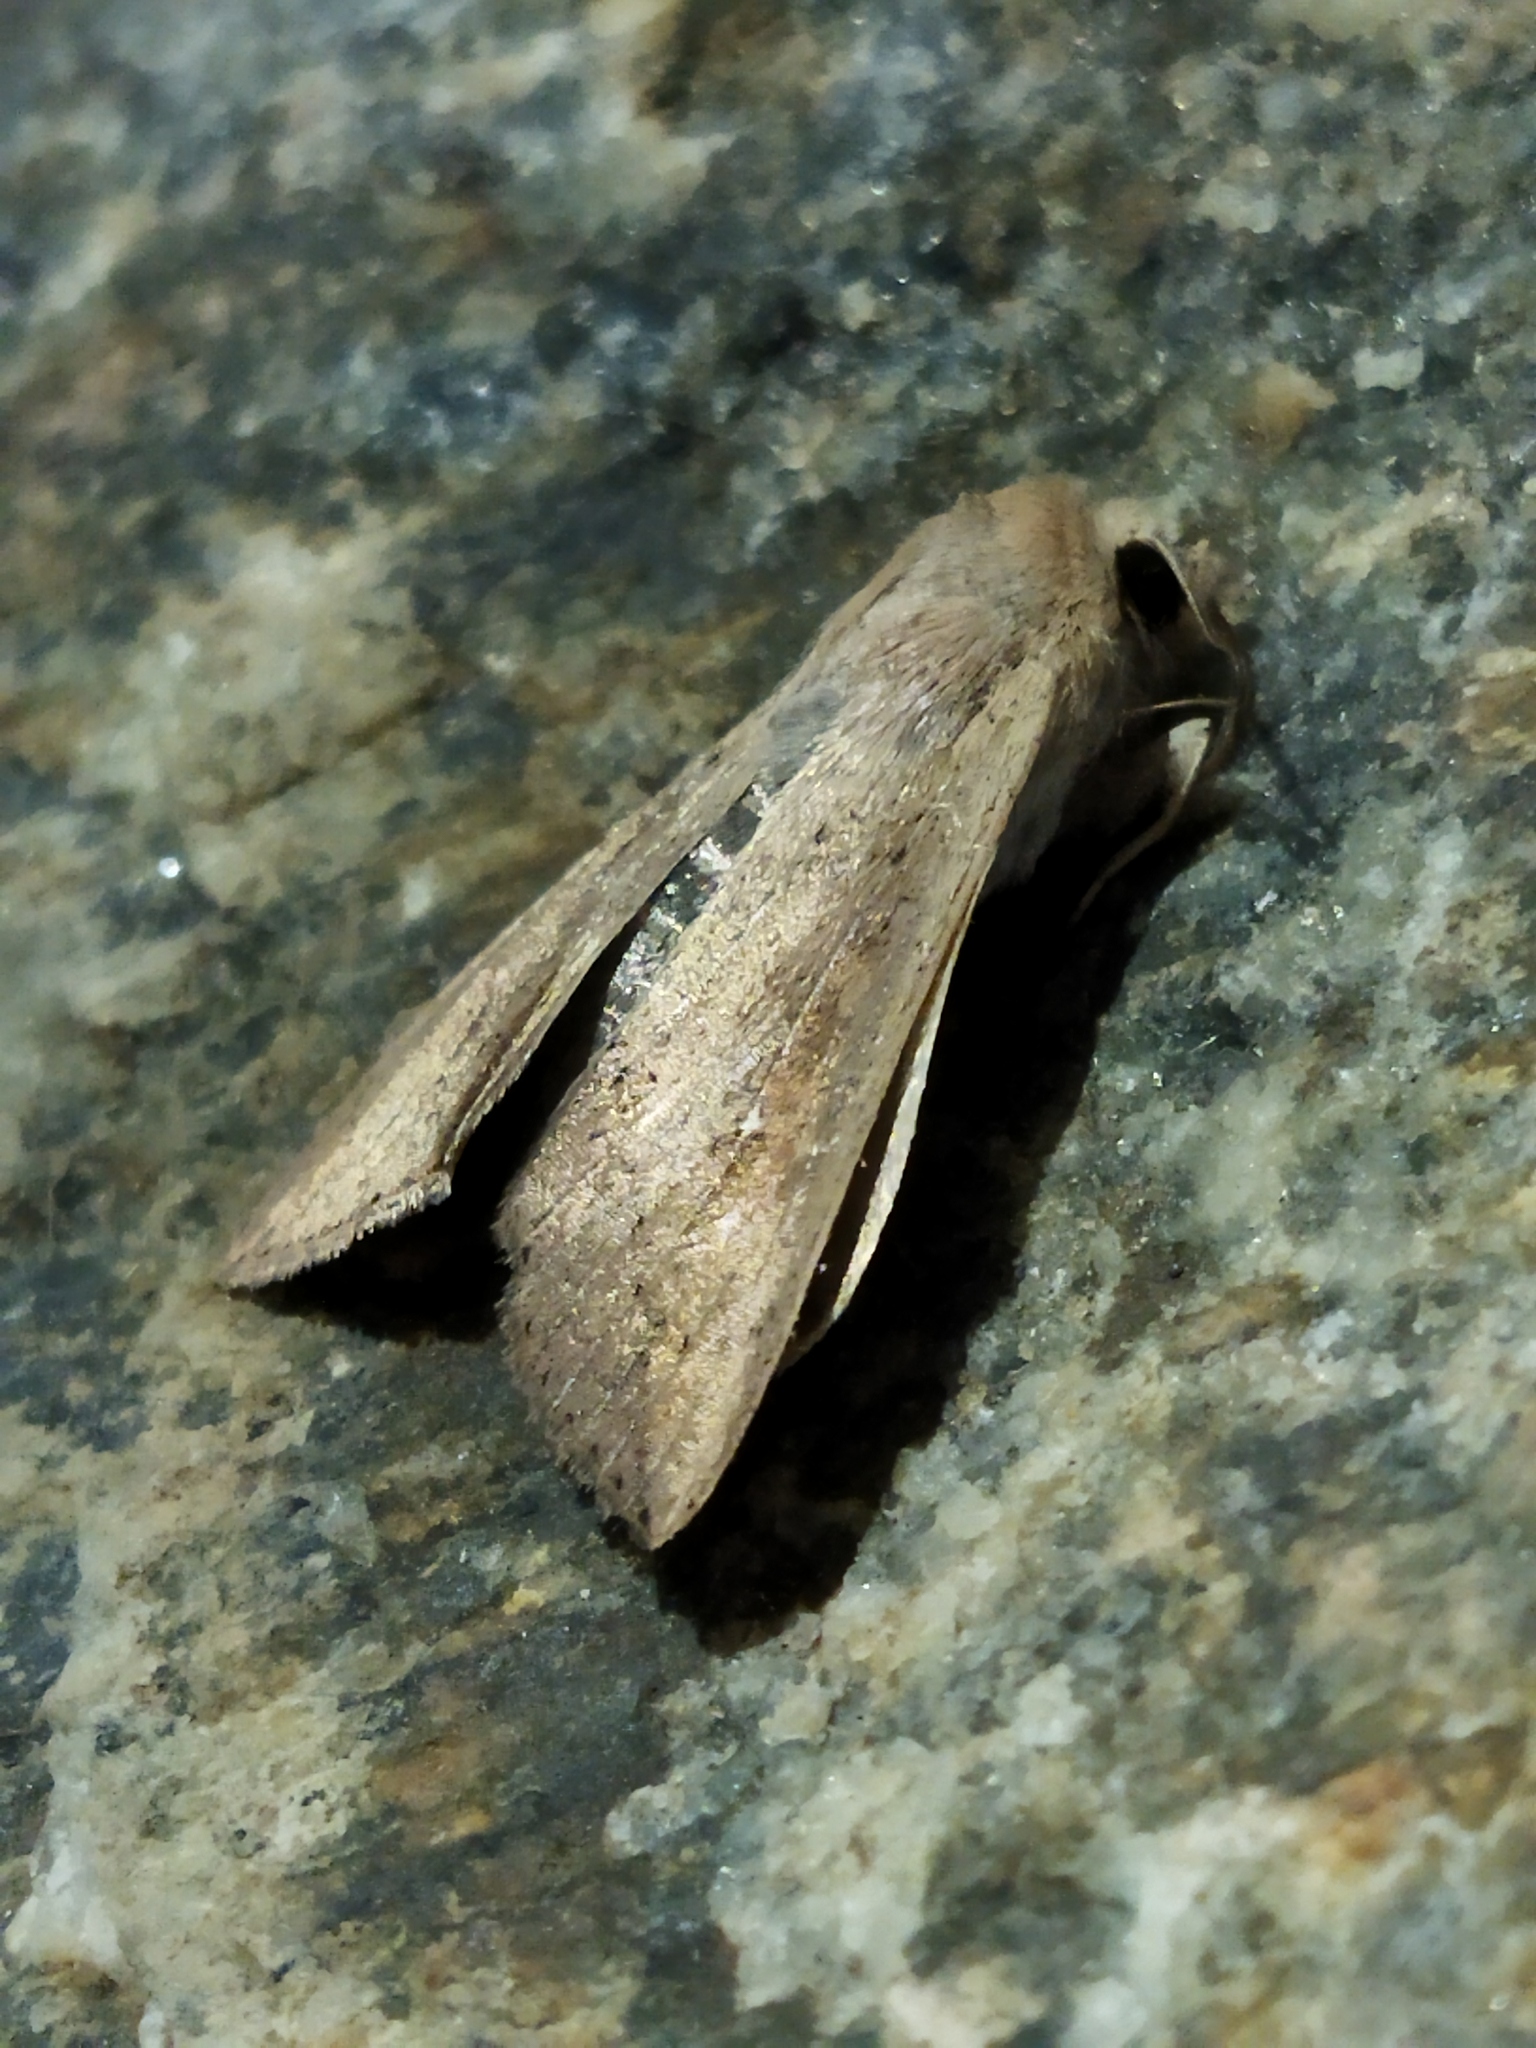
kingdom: Animalia
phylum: Arthropoda
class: Insecta
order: Lepidoptera
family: Noctuidae
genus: Mythimna
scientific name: Mythimna unipuncta
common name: White-speck
